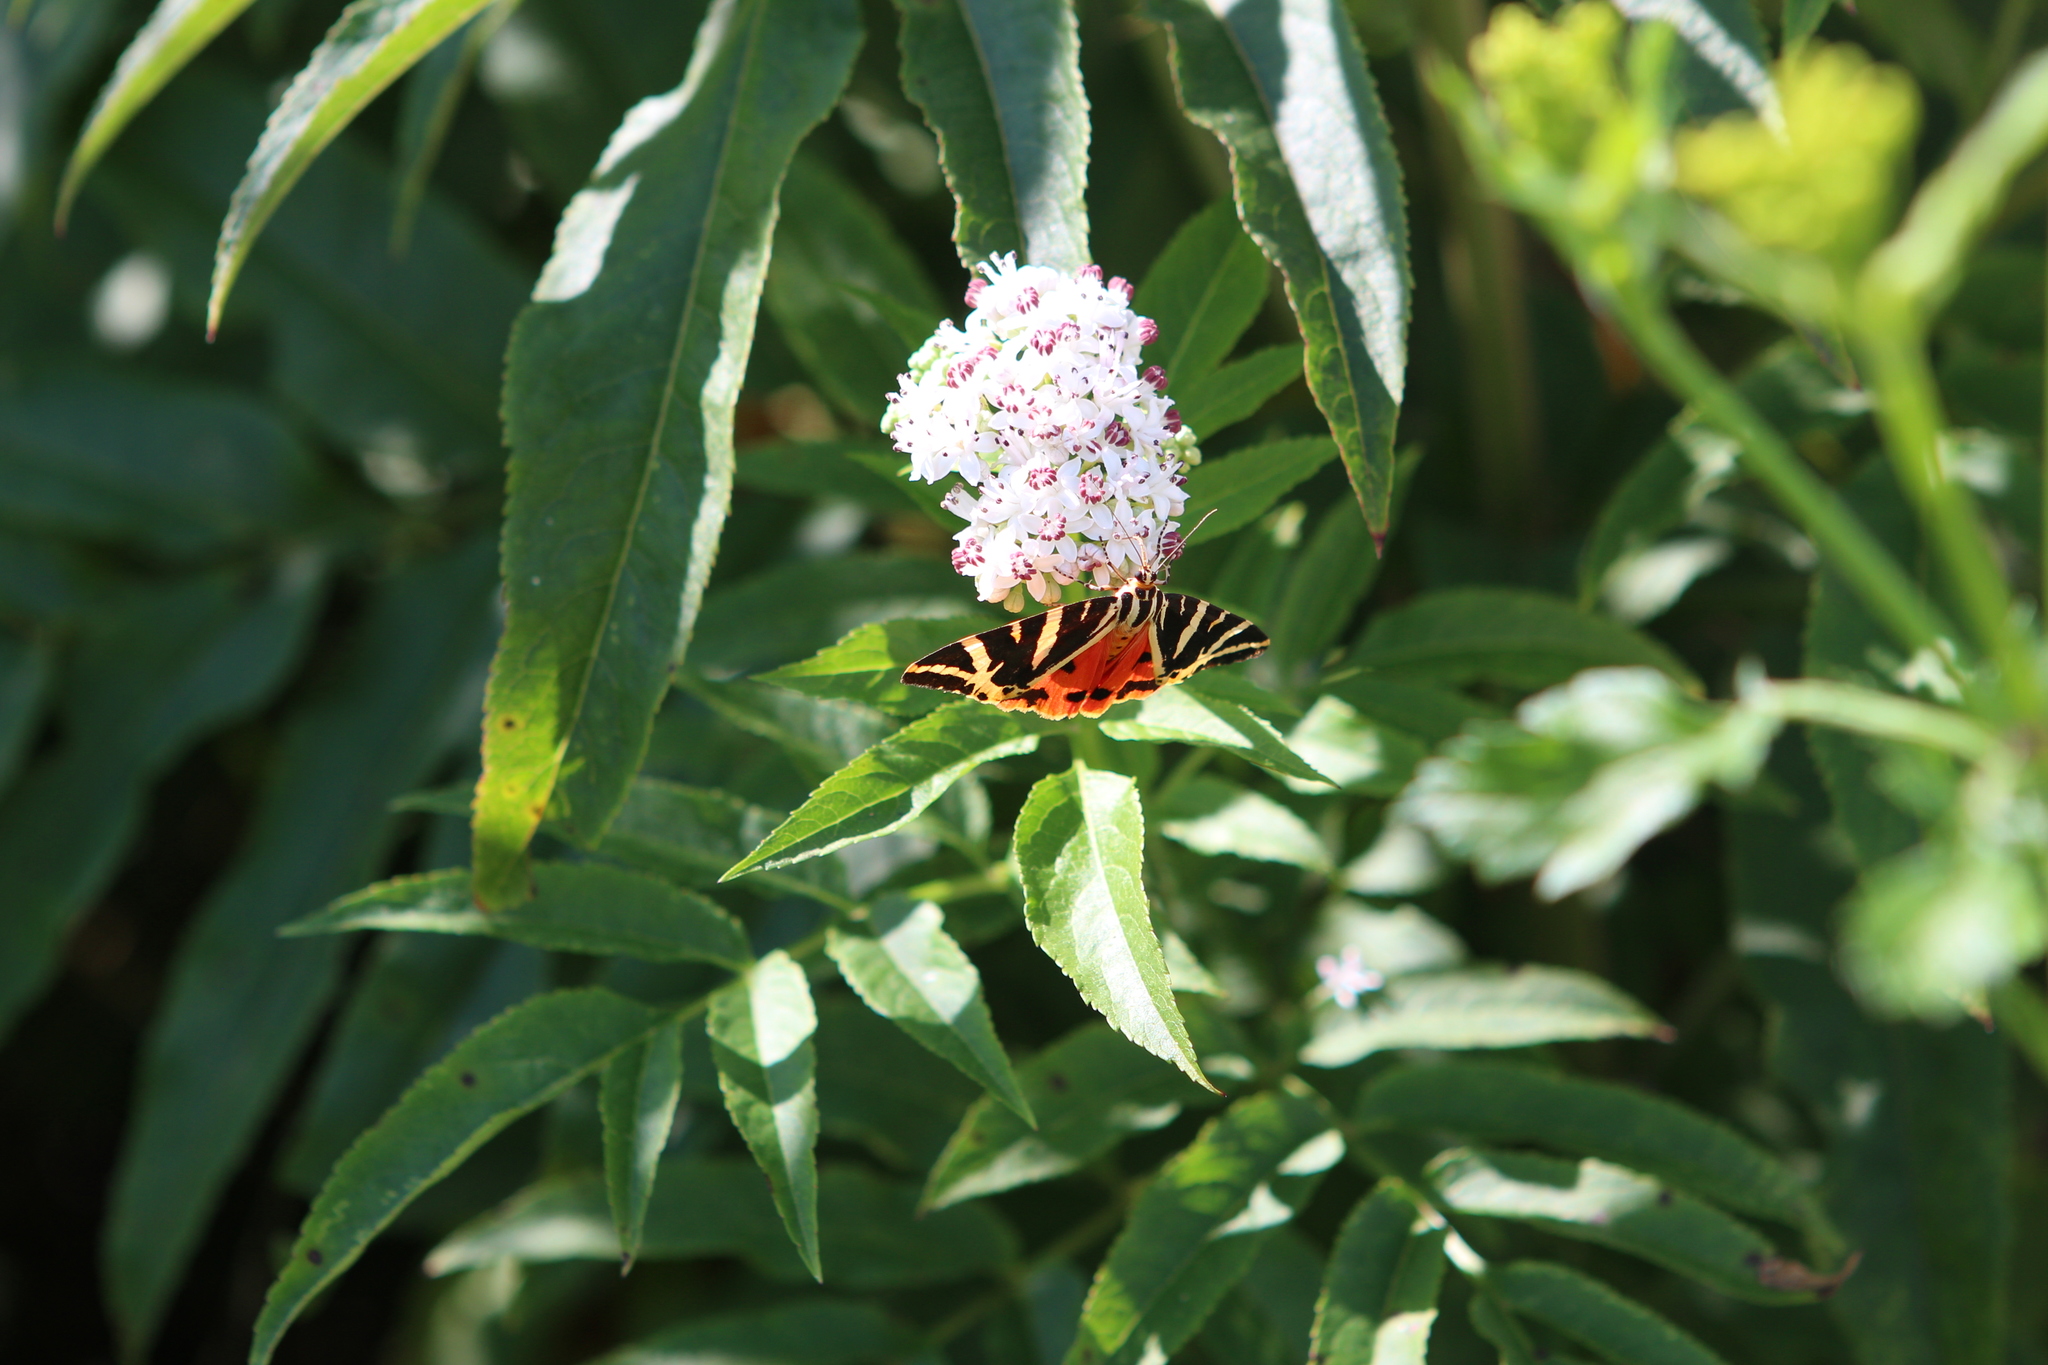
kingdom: Animalia
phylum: Arthropoda
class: Insecta
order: Lepidoptera
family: Erebidae
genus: Euplagia
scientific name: Euplagia quadripunctaria
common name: Jersey tiger
